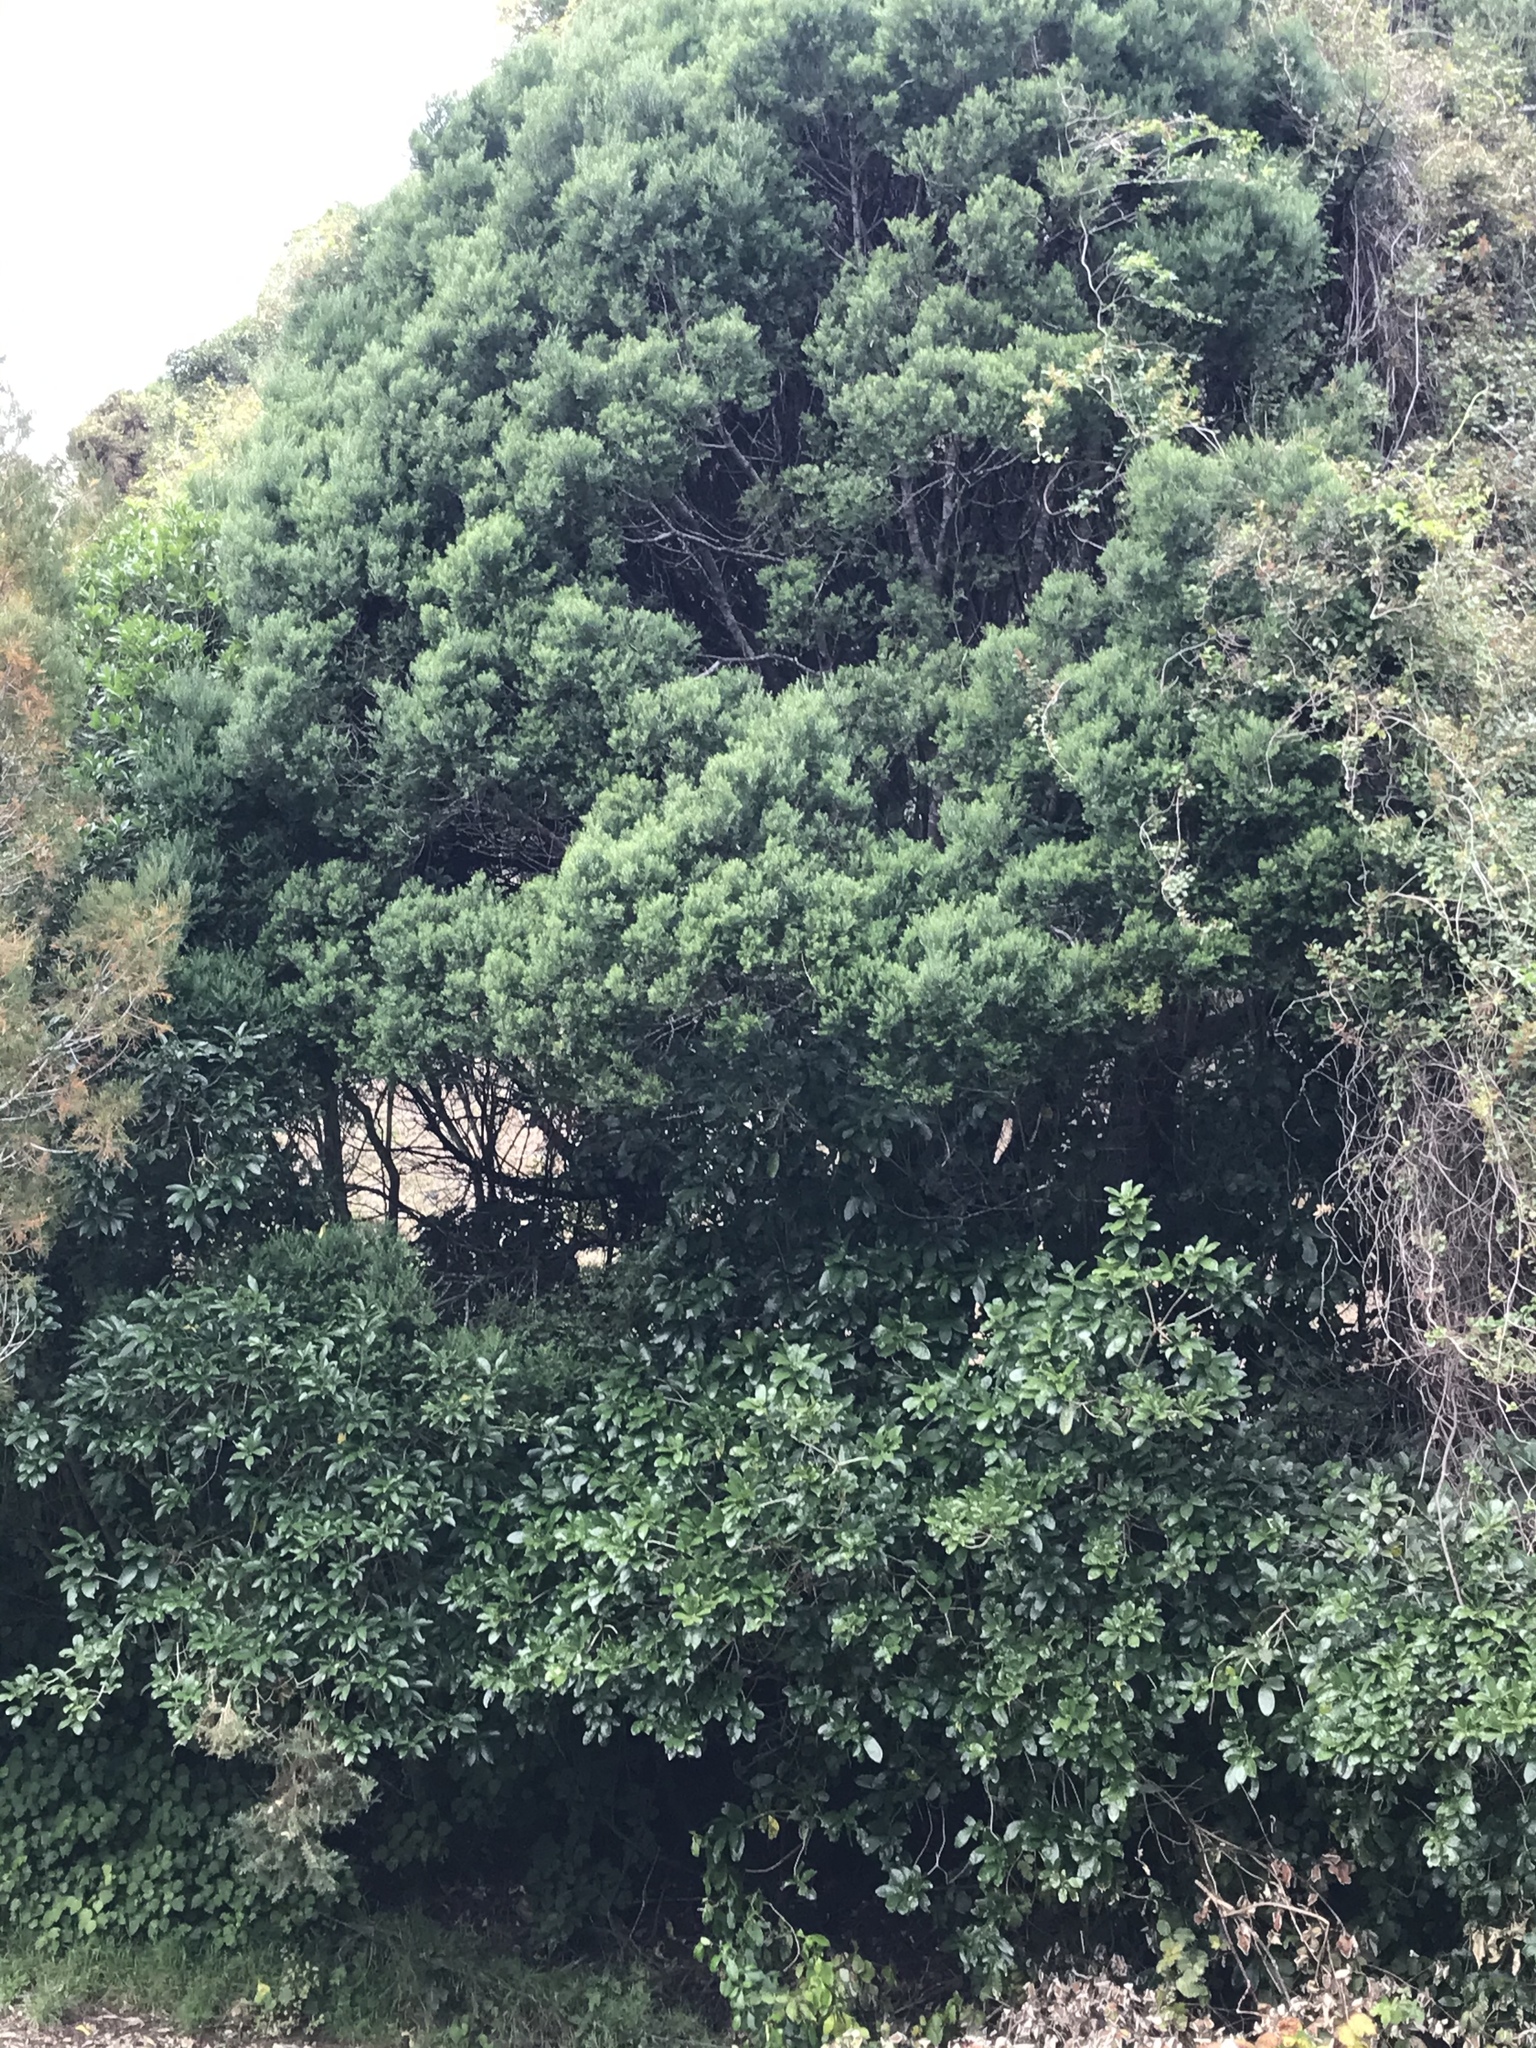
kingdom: Plantae
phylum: Tracheophyta
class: Pinopsida
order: Pinales
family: Podocarpaceae
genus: Prumnopitys
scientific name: Prumnopitys taxifolia
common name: Matai
